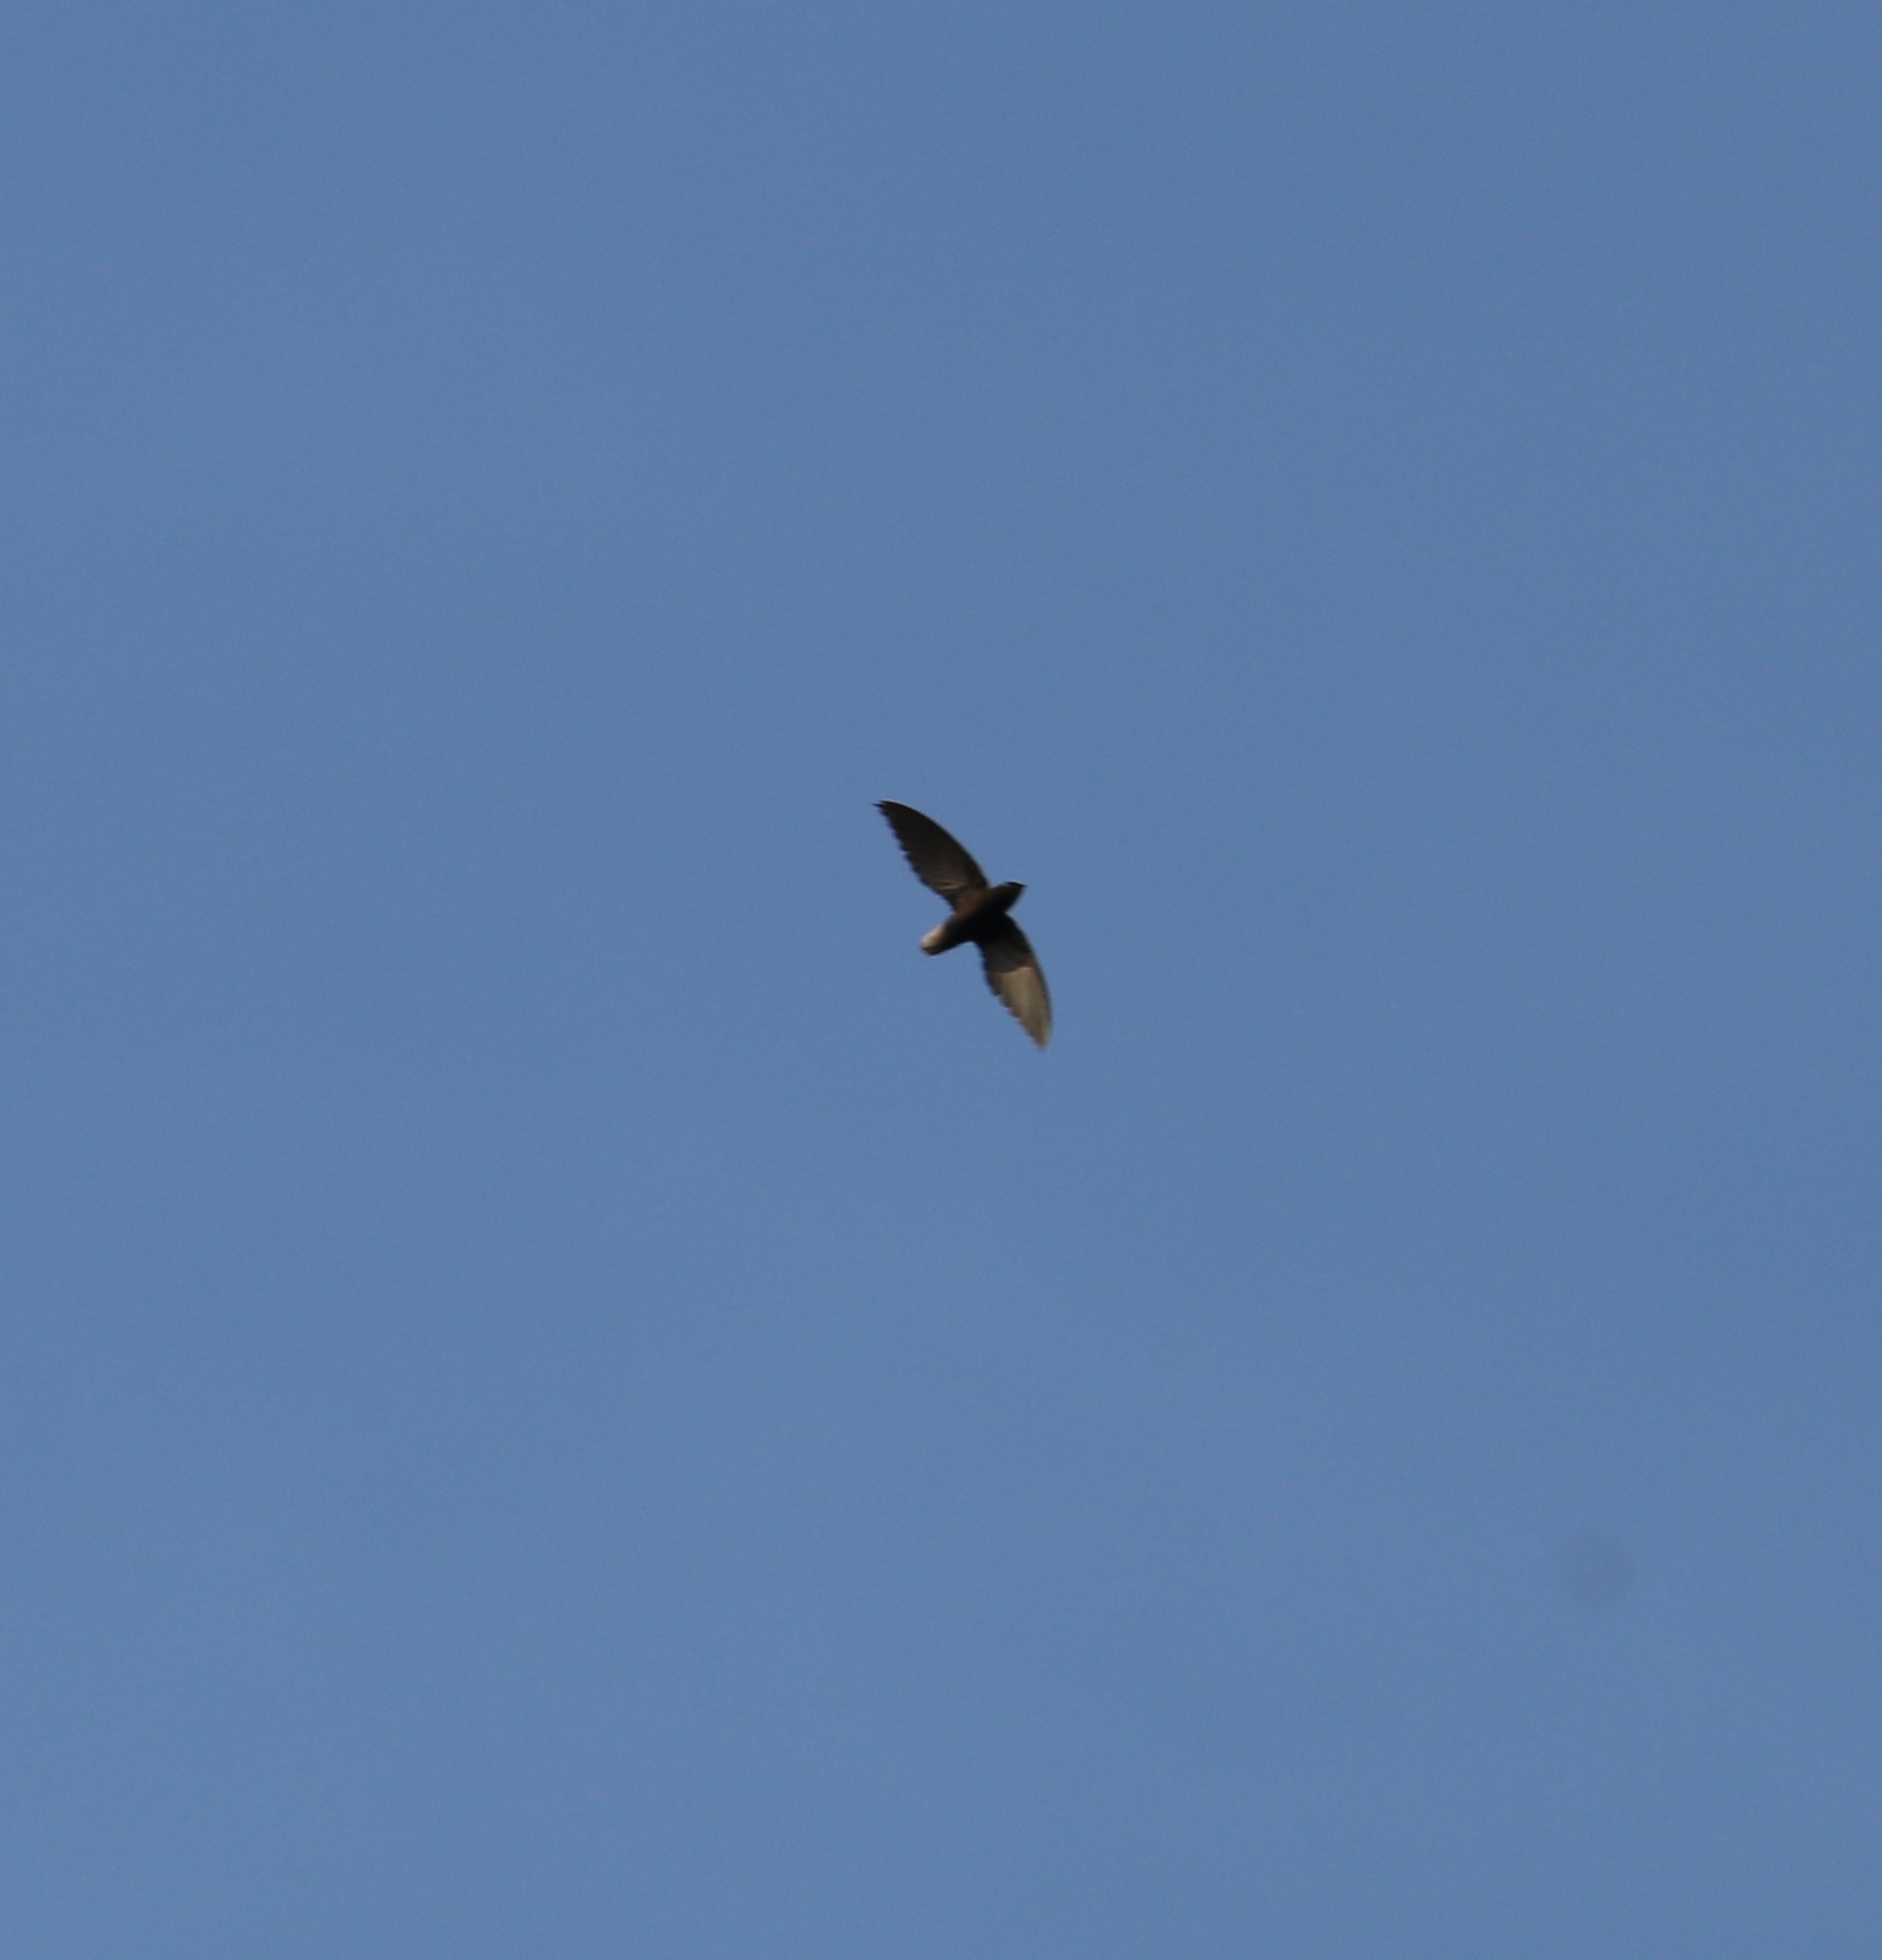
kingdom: Animalia
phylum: Chordata
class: Aves
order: Apodiformes
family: Apodidae
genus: Chaetura
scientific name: Chaetura brachyura
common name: Short-tailed swift
